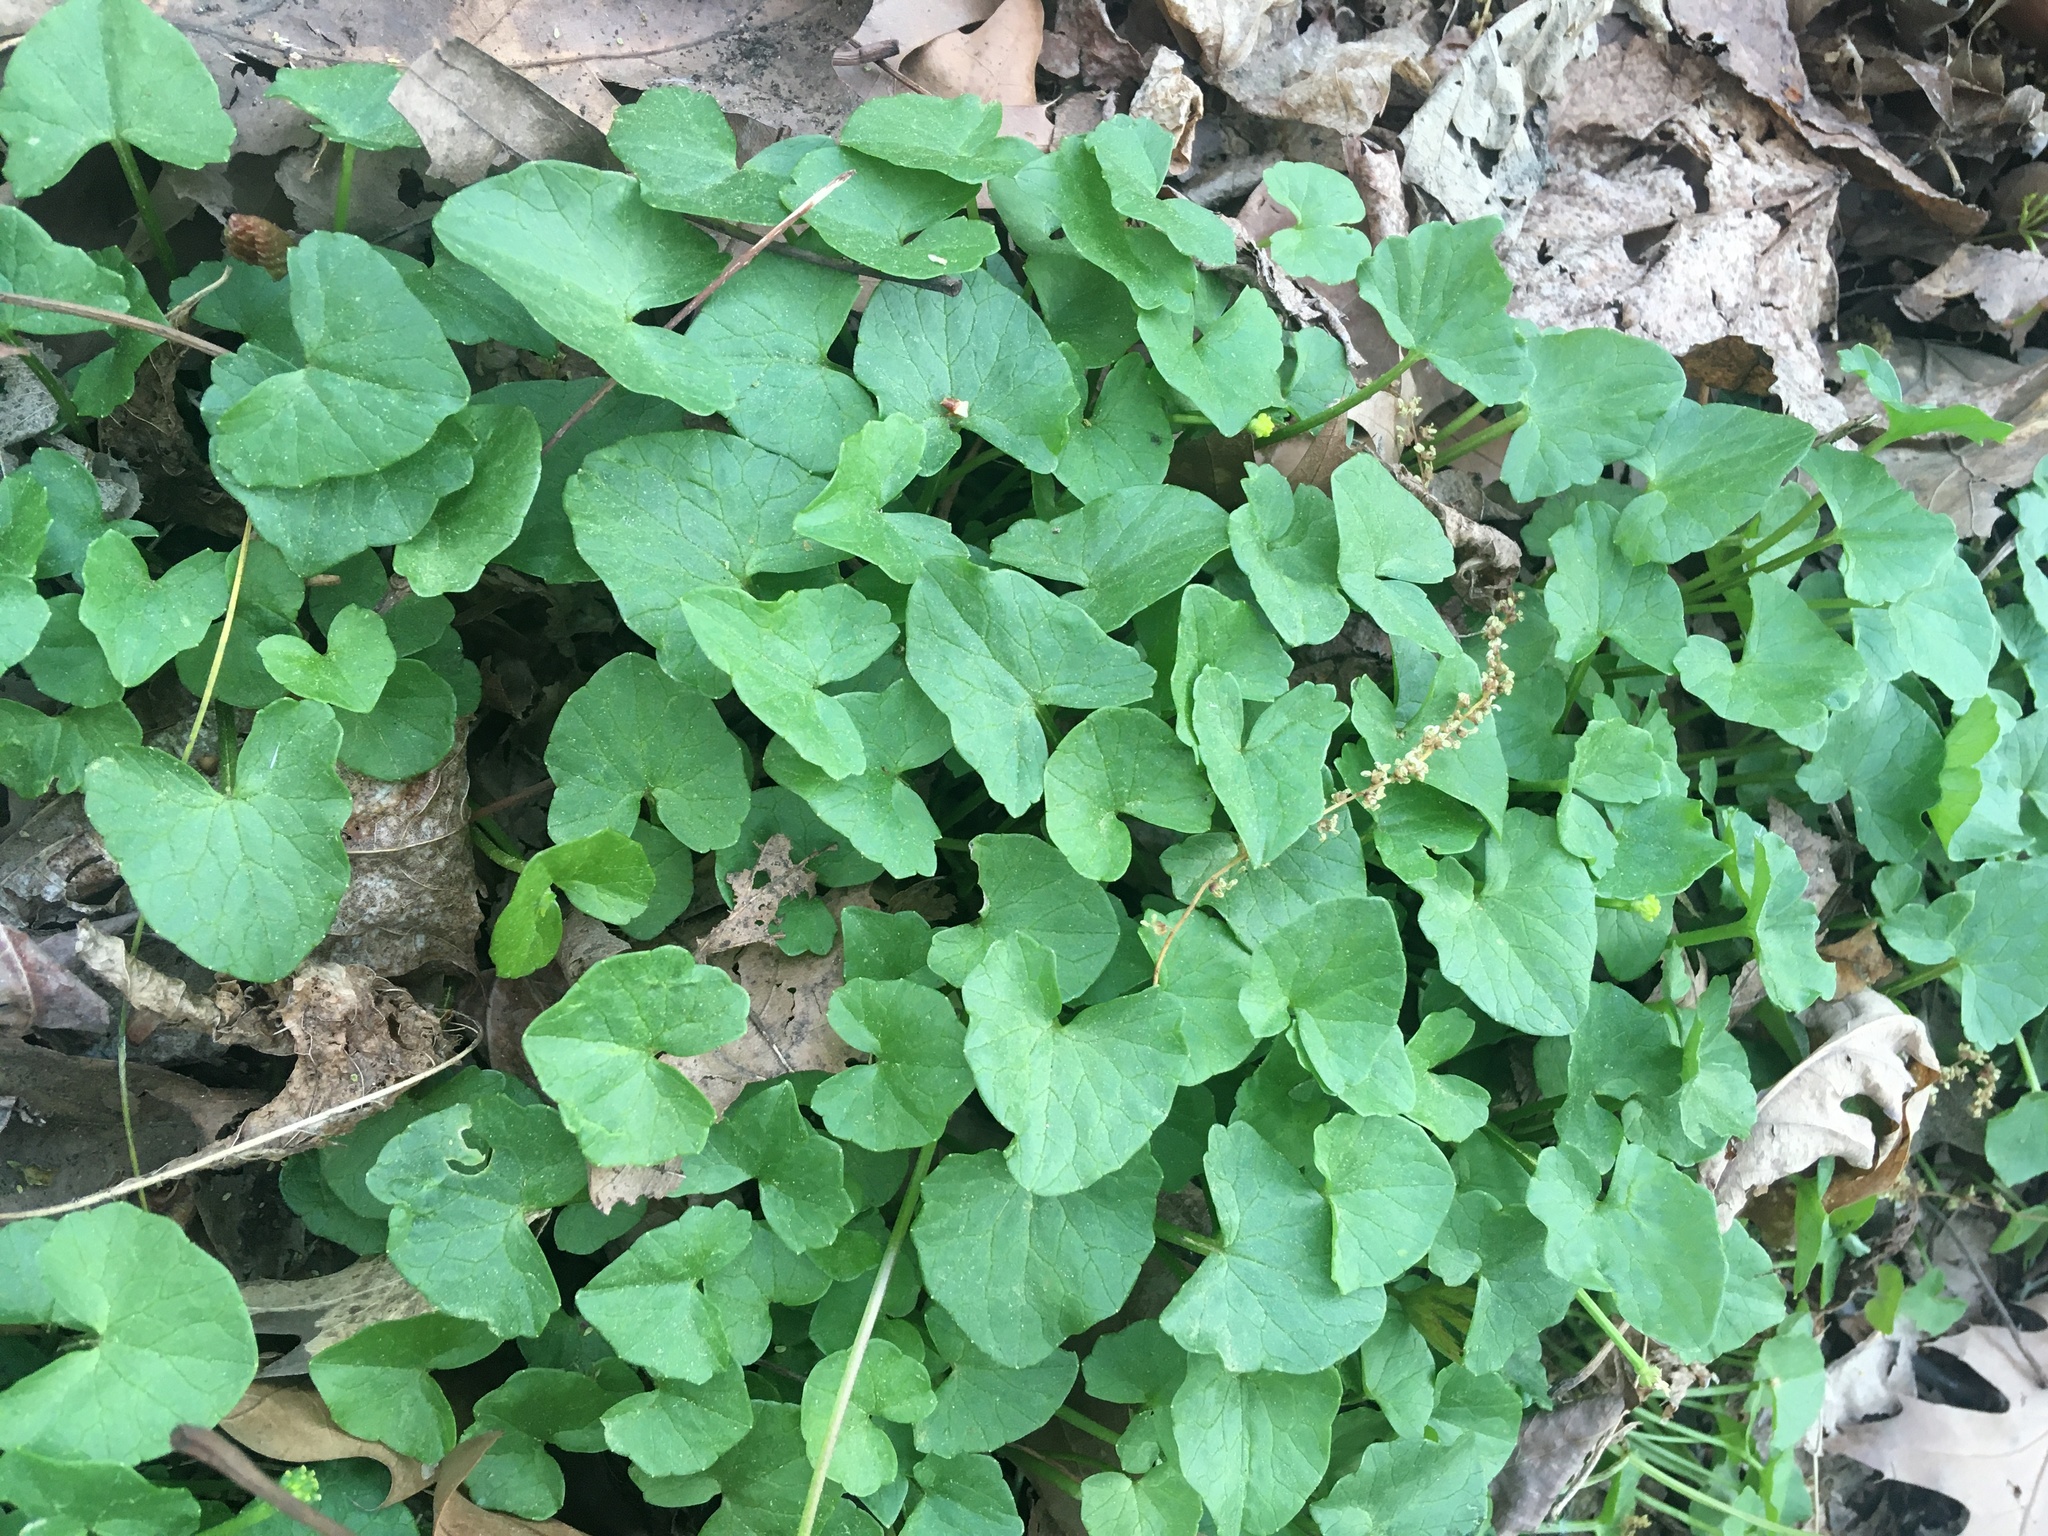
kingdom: Plantae
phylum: Tracheophyta
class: Magnoliopsida
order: Ranunculales
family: Ranunculaceae
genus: Ficaria
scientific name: Ficaria verna
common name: Lesser celandine
